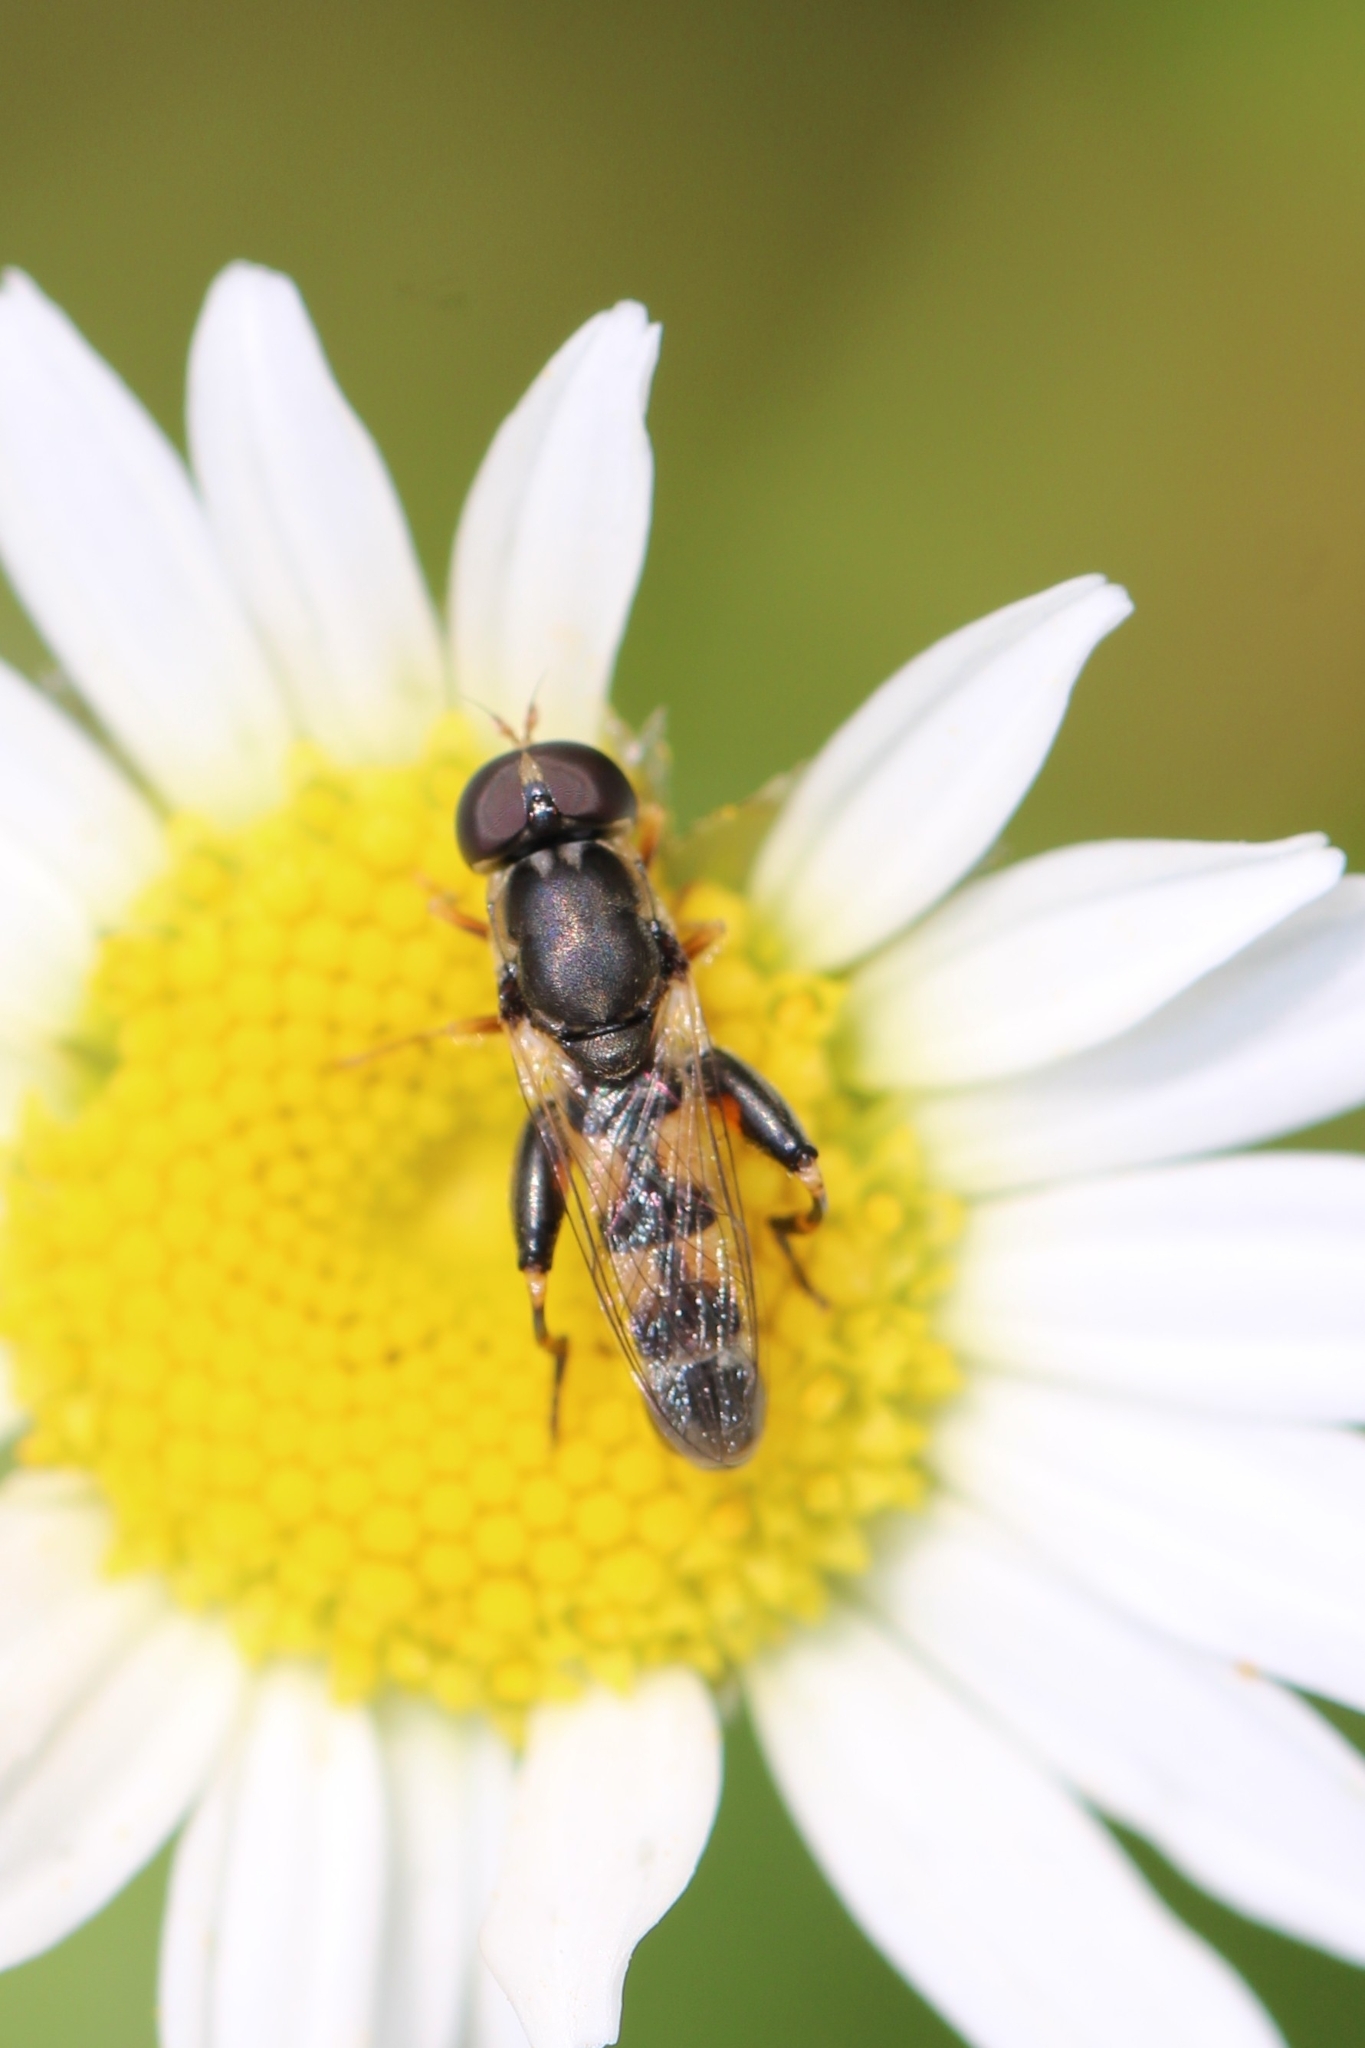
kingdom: Animalia
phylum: Arthropoda
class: Insecta
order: Diptera
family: Syrphidae
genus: Syritta
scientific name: Syritta pipiens
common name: Hover fly
